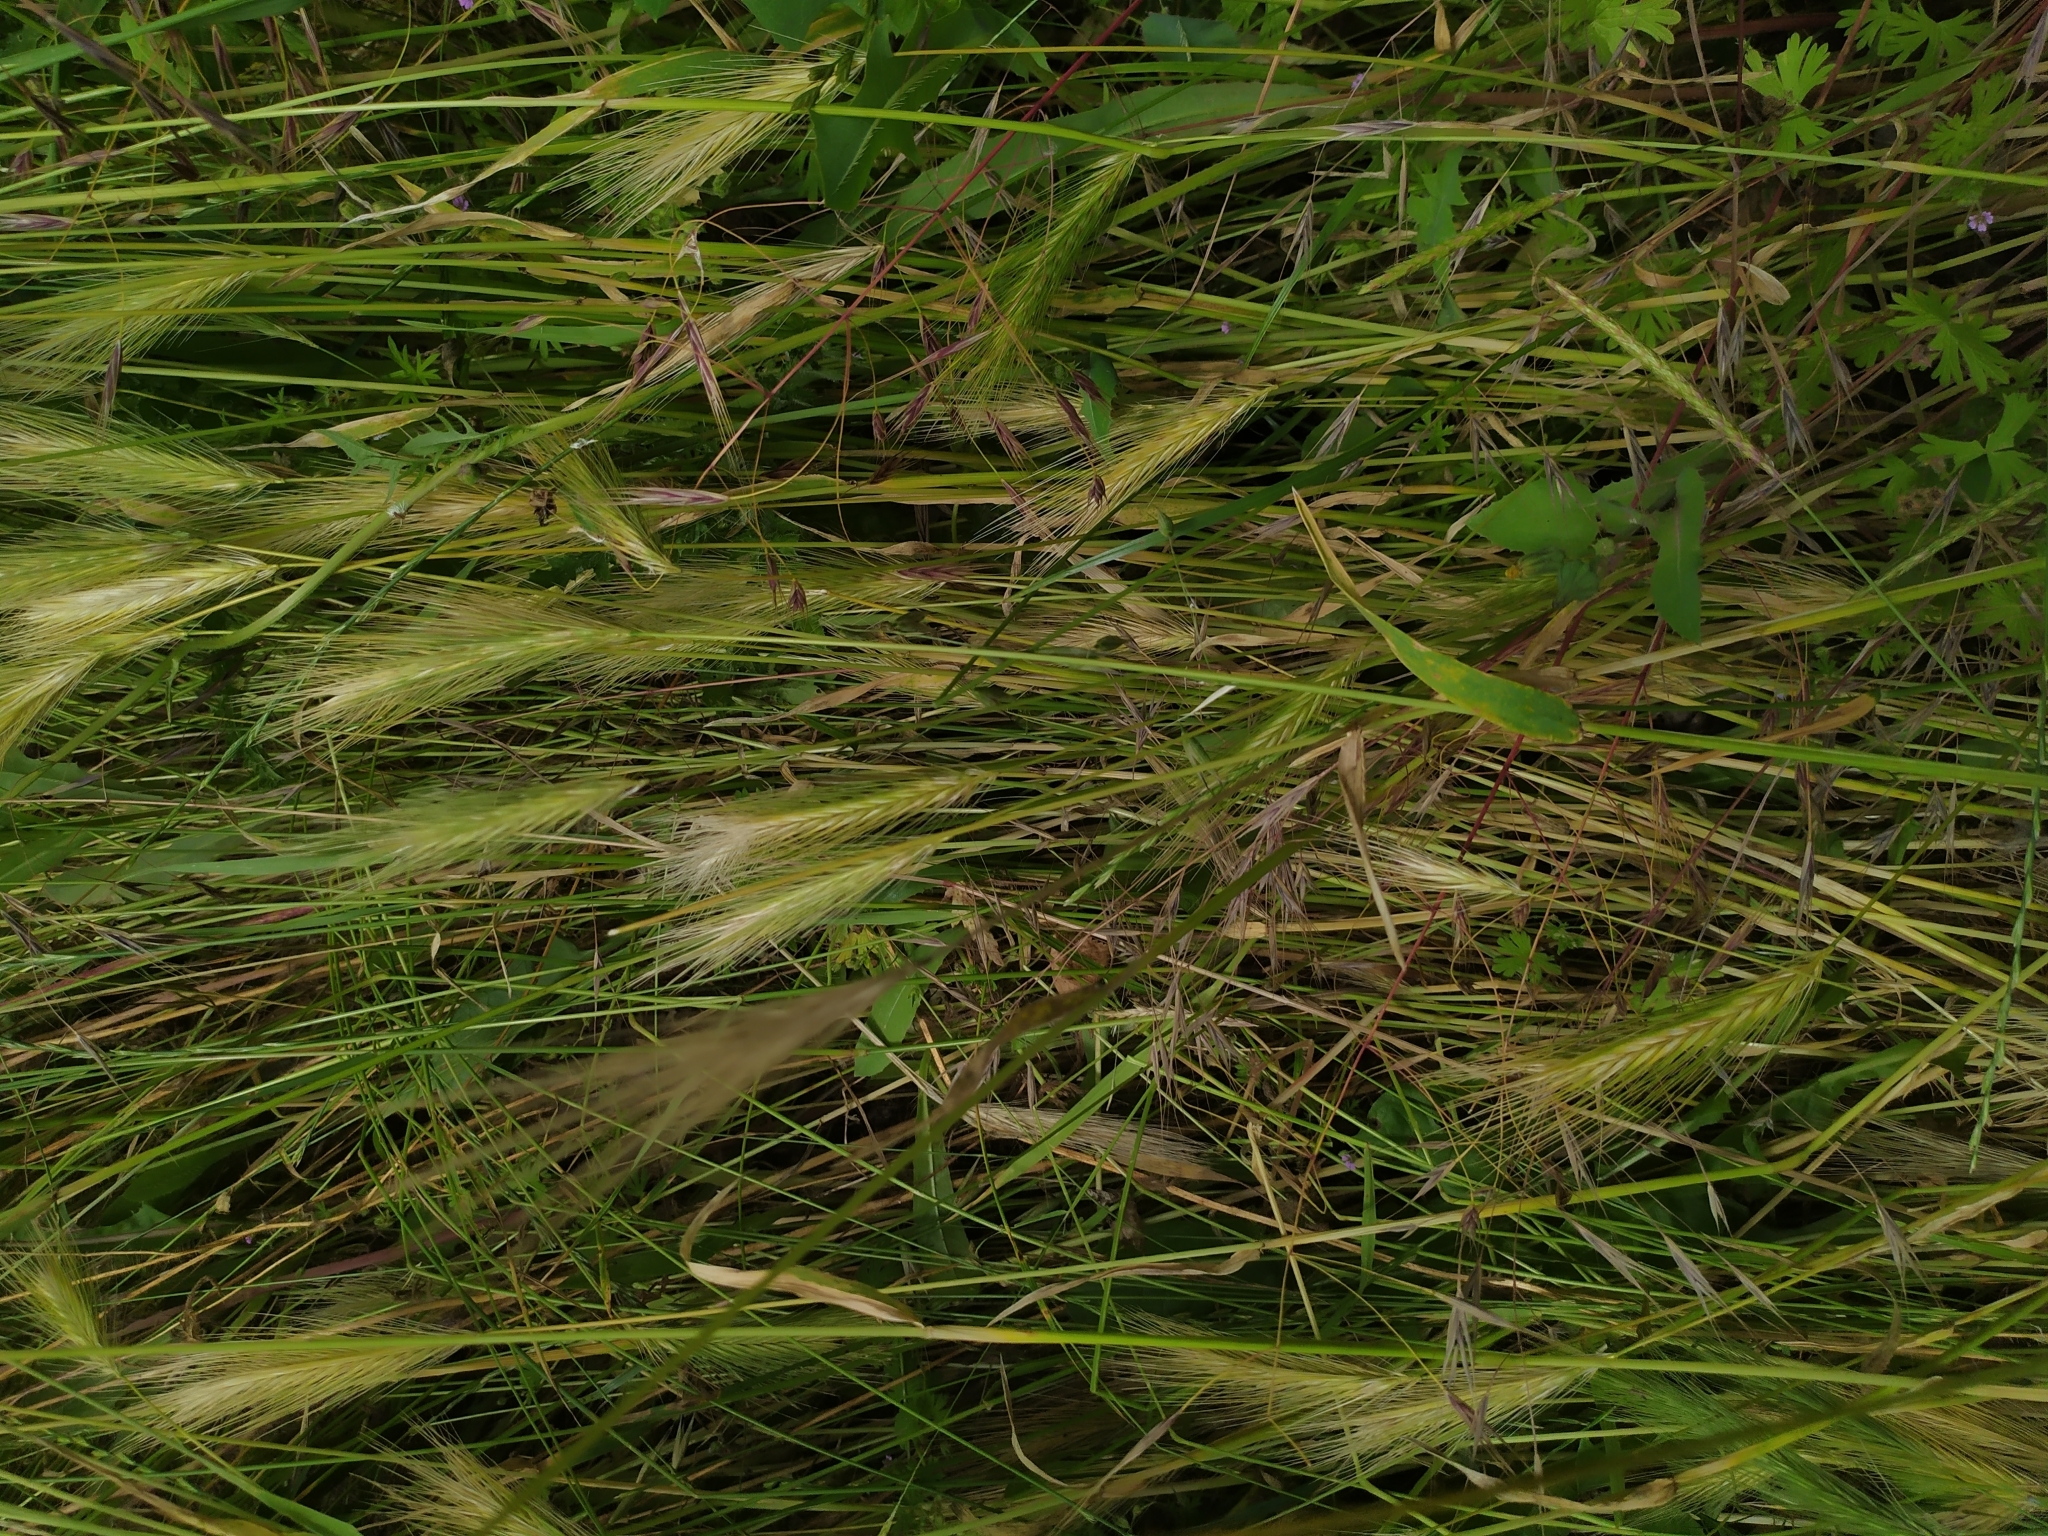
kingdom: Plantae
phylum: Tracheophyta
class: Liliopsida
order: Poales
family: Poaceae
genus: Hordeum
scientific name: Hordeum murinum
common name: Wall barley
